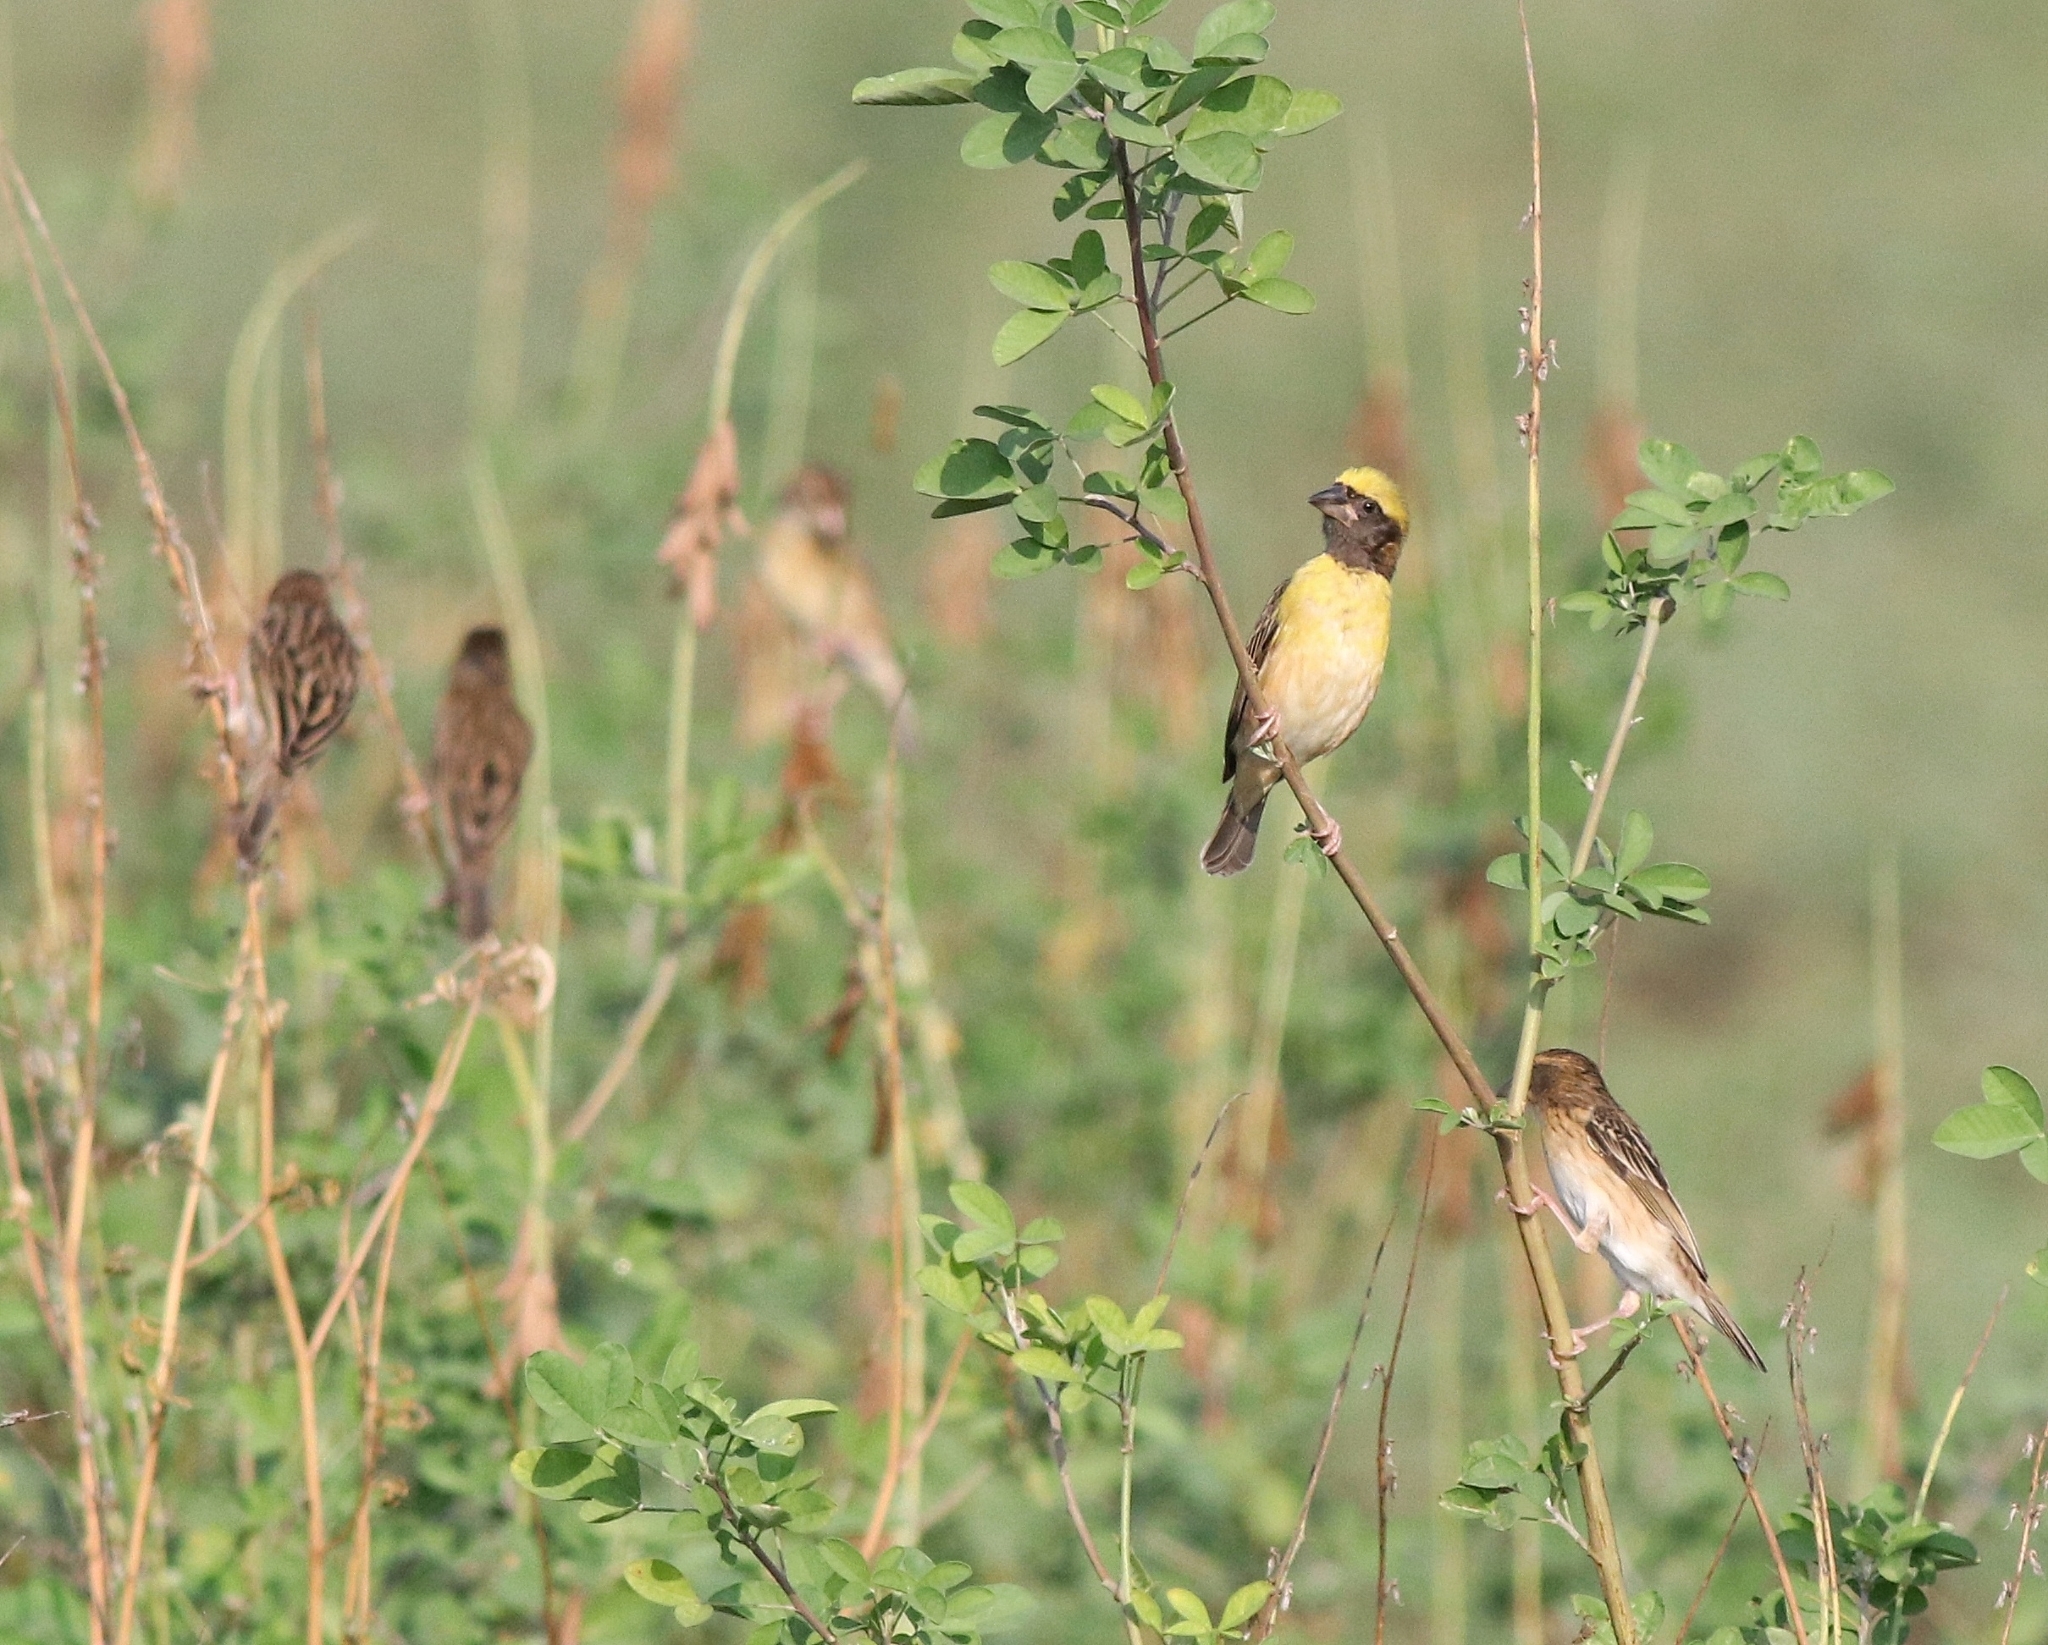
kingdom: Animalia
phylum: Chordata
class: Aves
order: Passeriformes
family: Ploceidae
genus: Ploceus
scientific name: Ploceus philippinus
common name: Baya weaver
